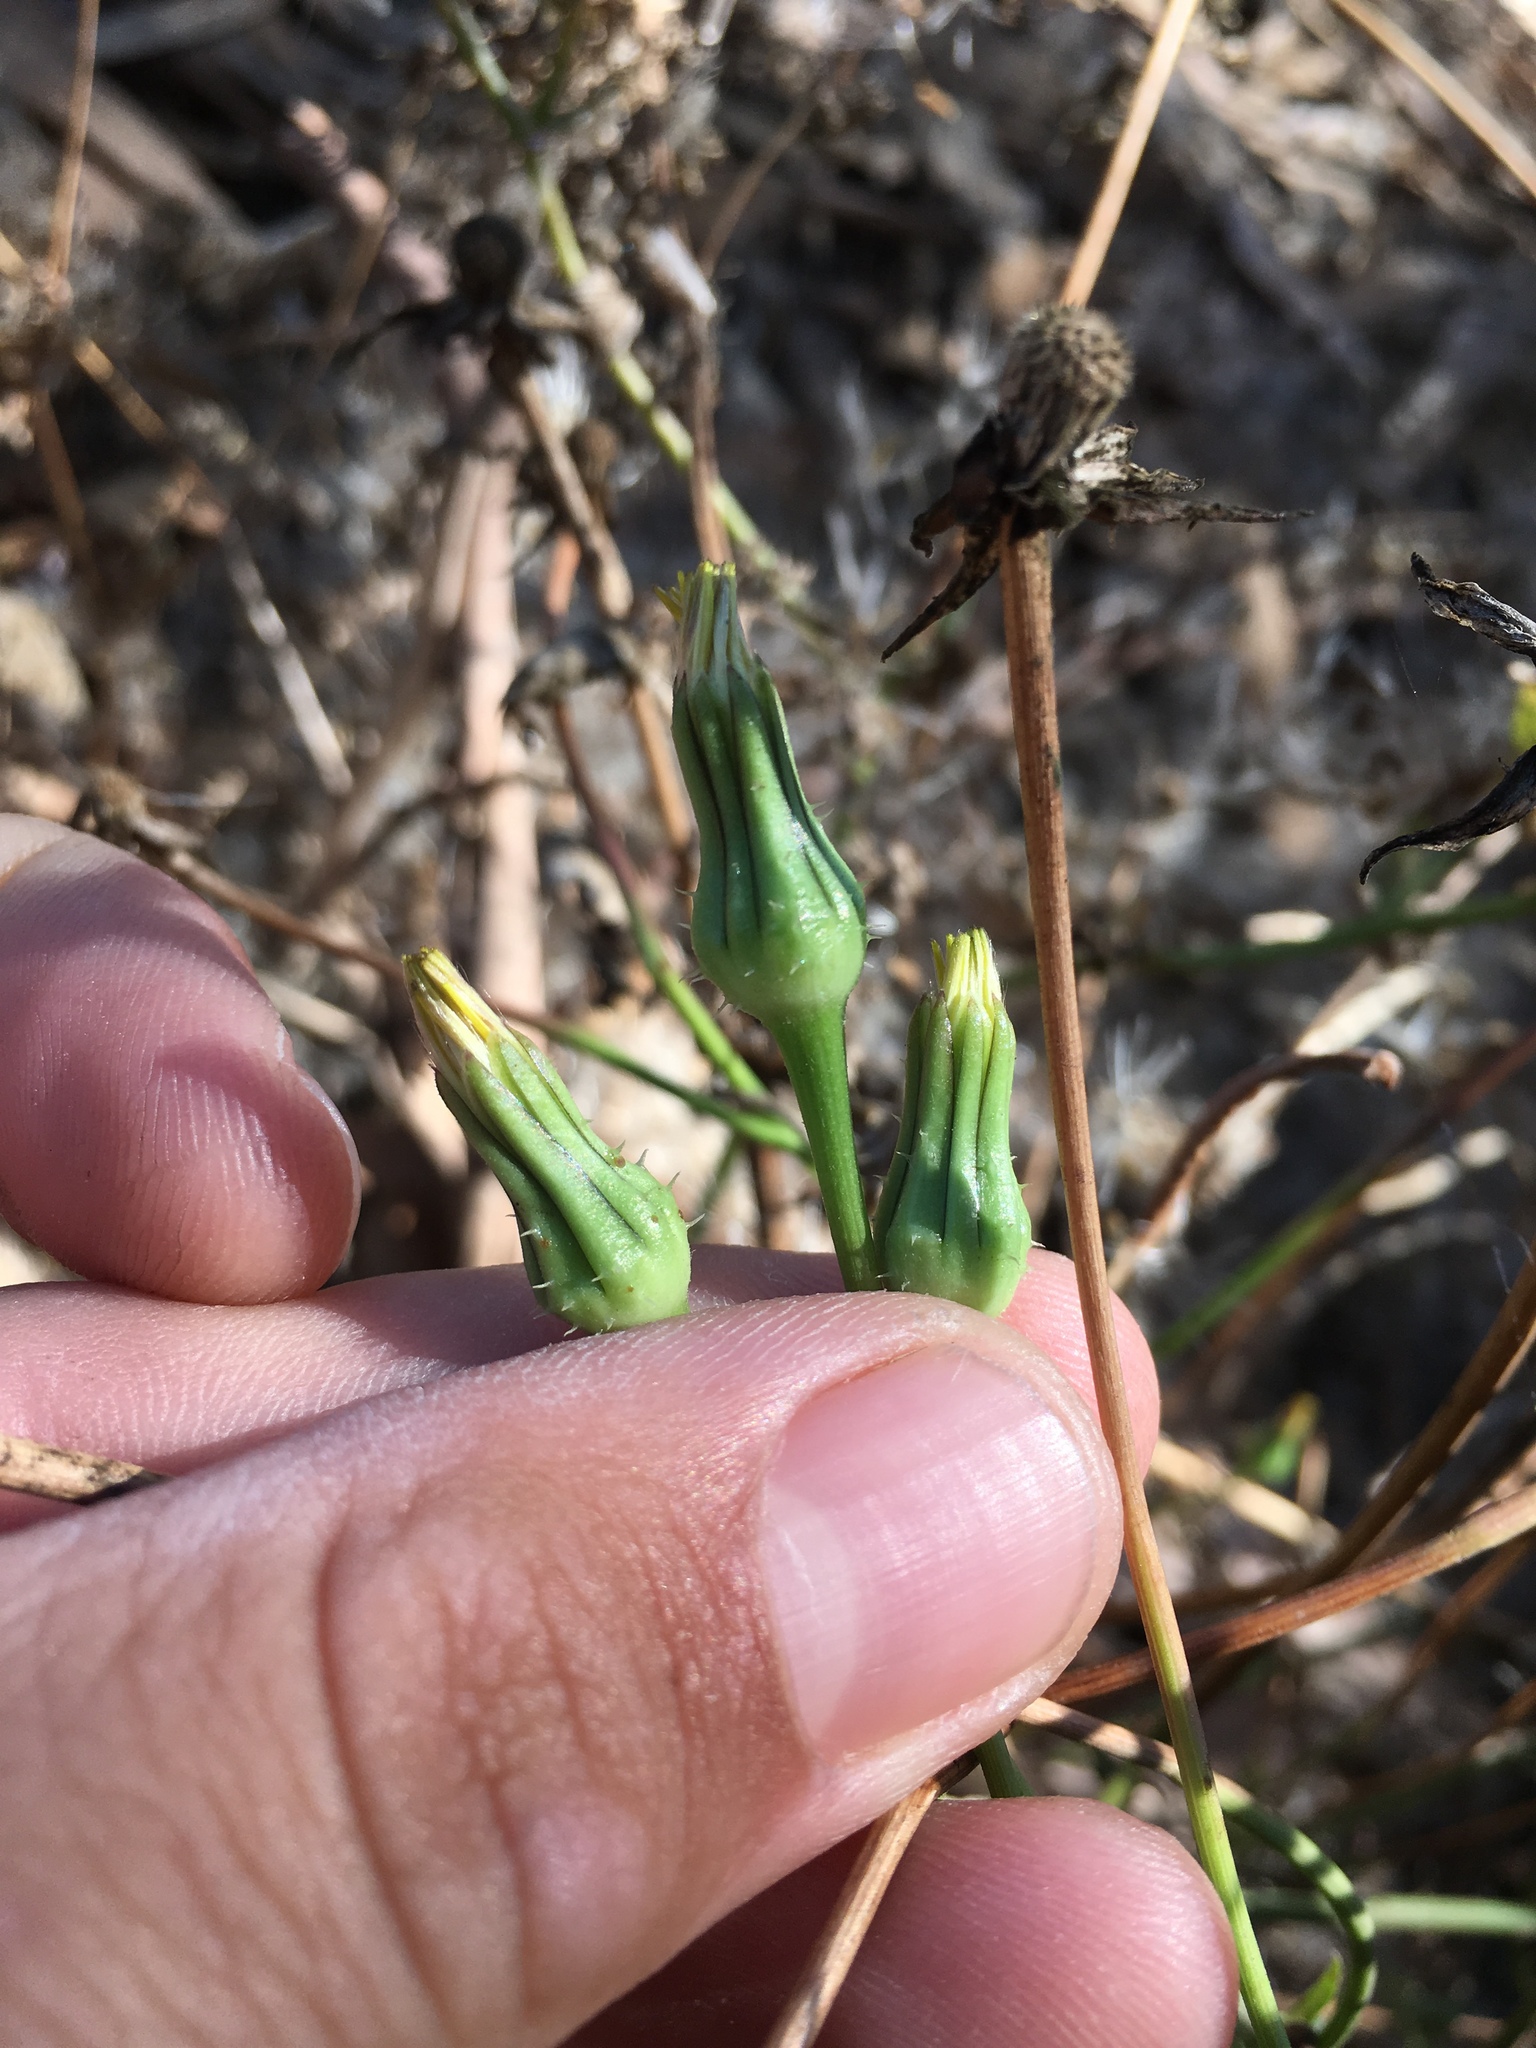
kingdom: Plantae
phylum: Tracheophyta
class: Magnoliopsida
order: Asterales
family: Asteraceae
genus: Urospermum
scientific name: Urospermum picroides
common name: False hawkbit
